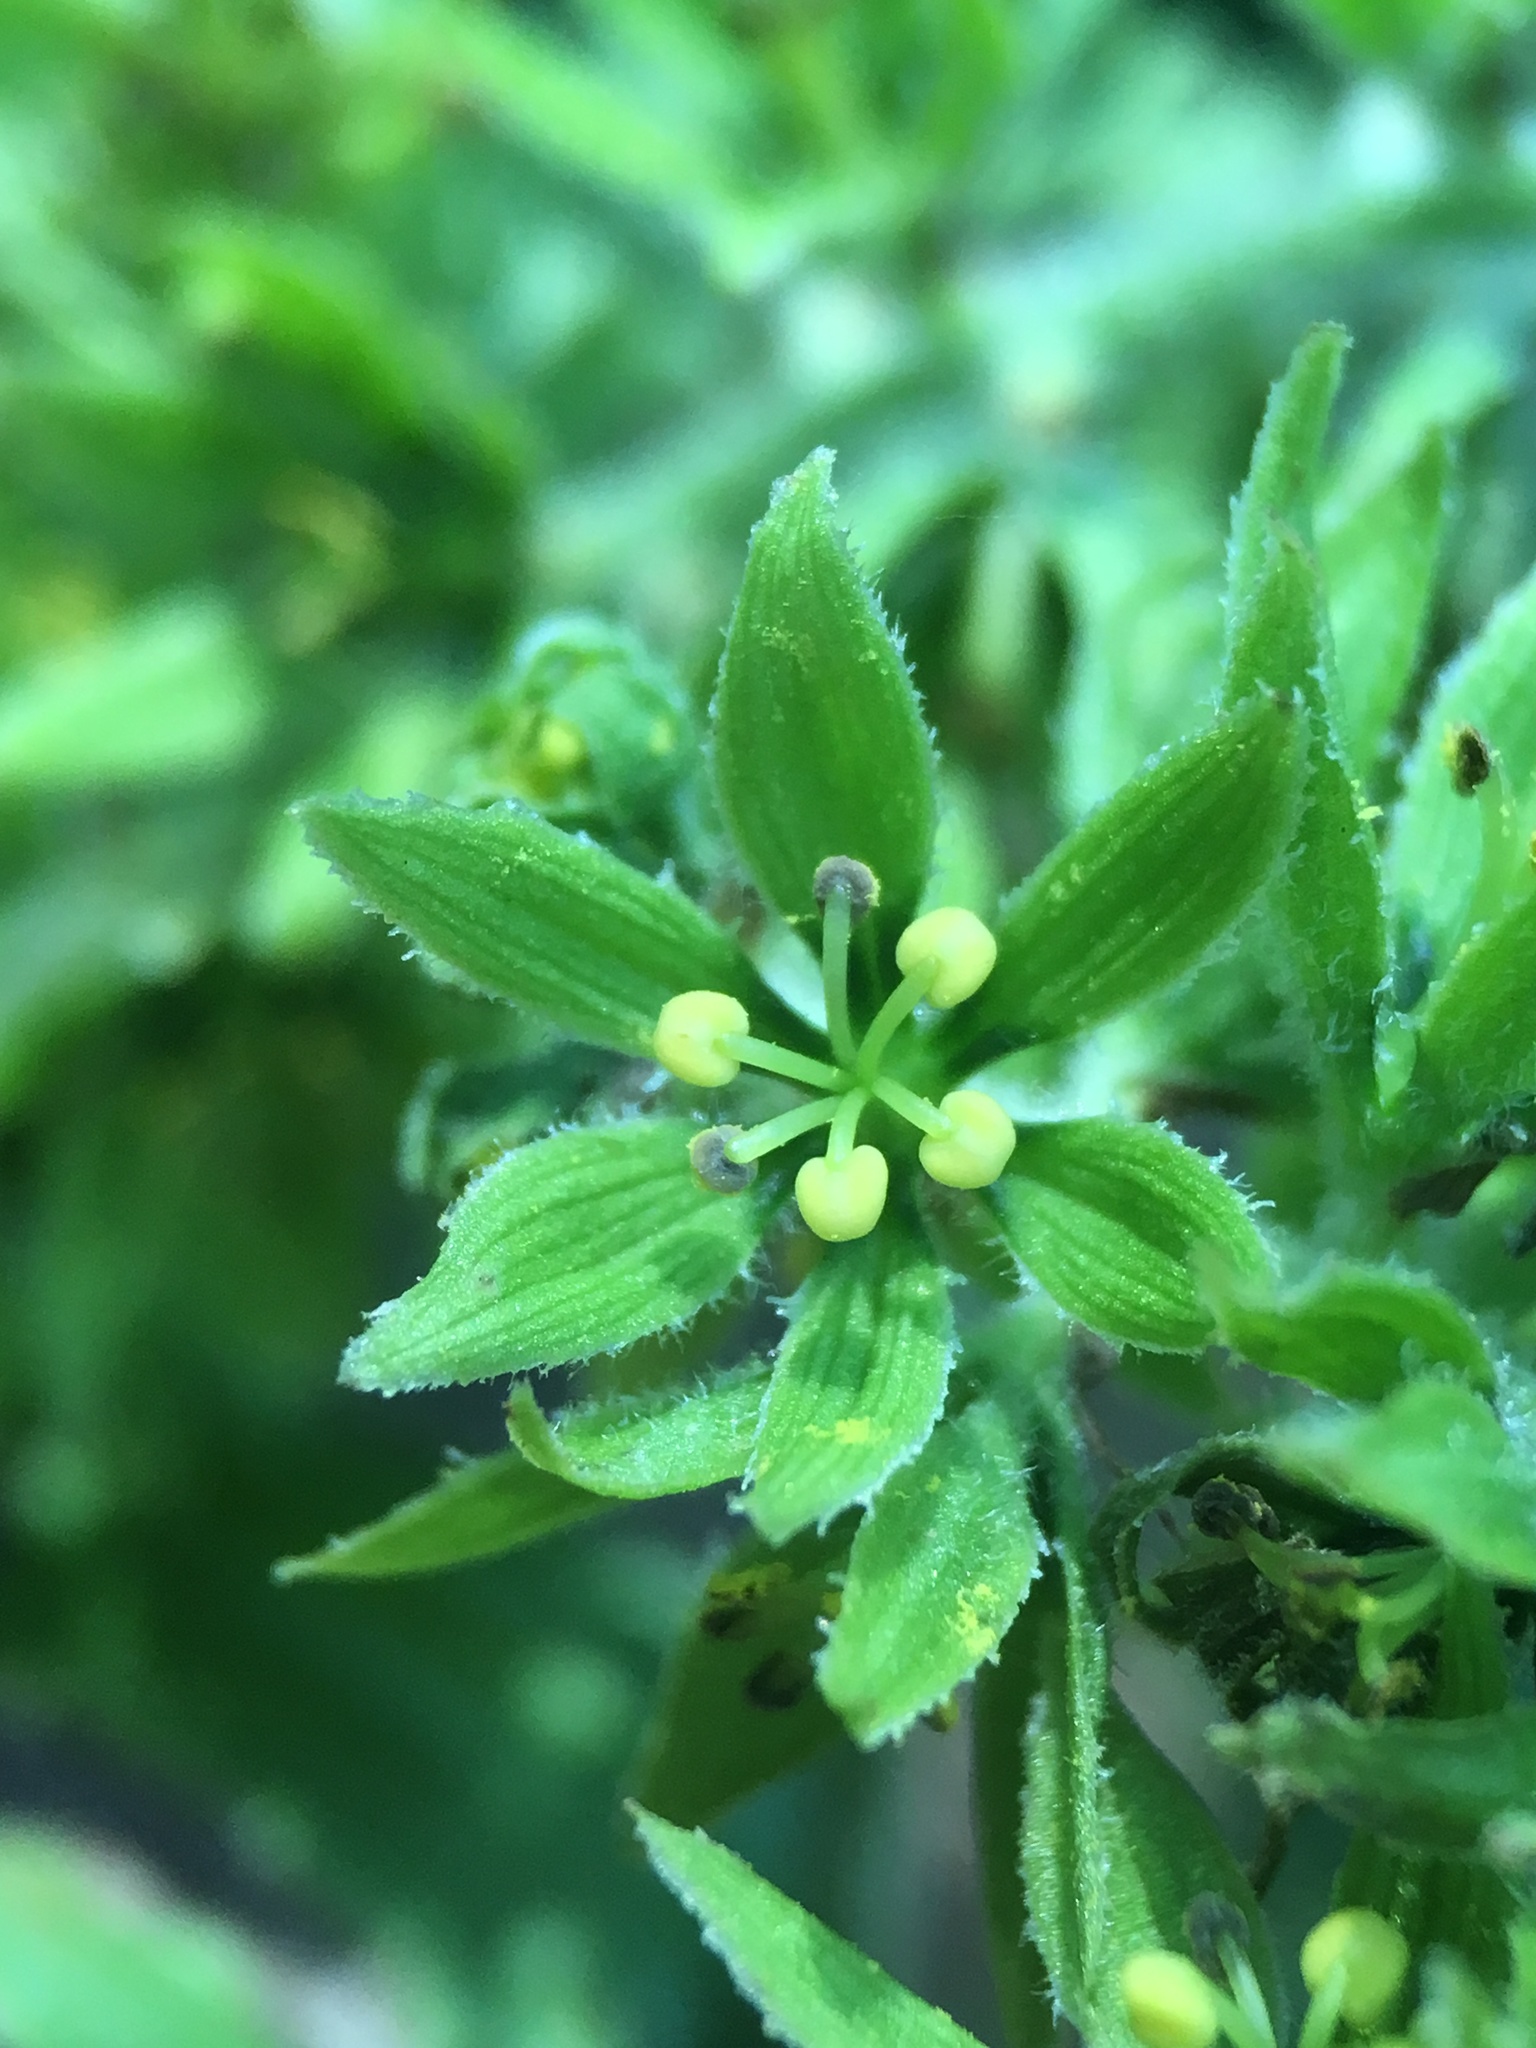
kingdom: Plantae
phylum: Tracheophyta
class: Liliopsida
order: Liliales
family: Melanthiaceae
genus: Veratrum
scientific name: Veratrum viride
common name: American false hellebore
